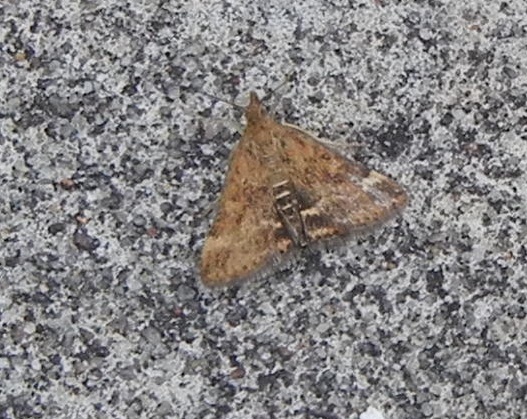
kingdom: Animalia
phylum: Arthropoda
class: Insecta
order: Lepidoptera
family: Crambidae
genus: Pyrausta
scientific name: Pyrausta despicata
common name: Straw-barred pearl
